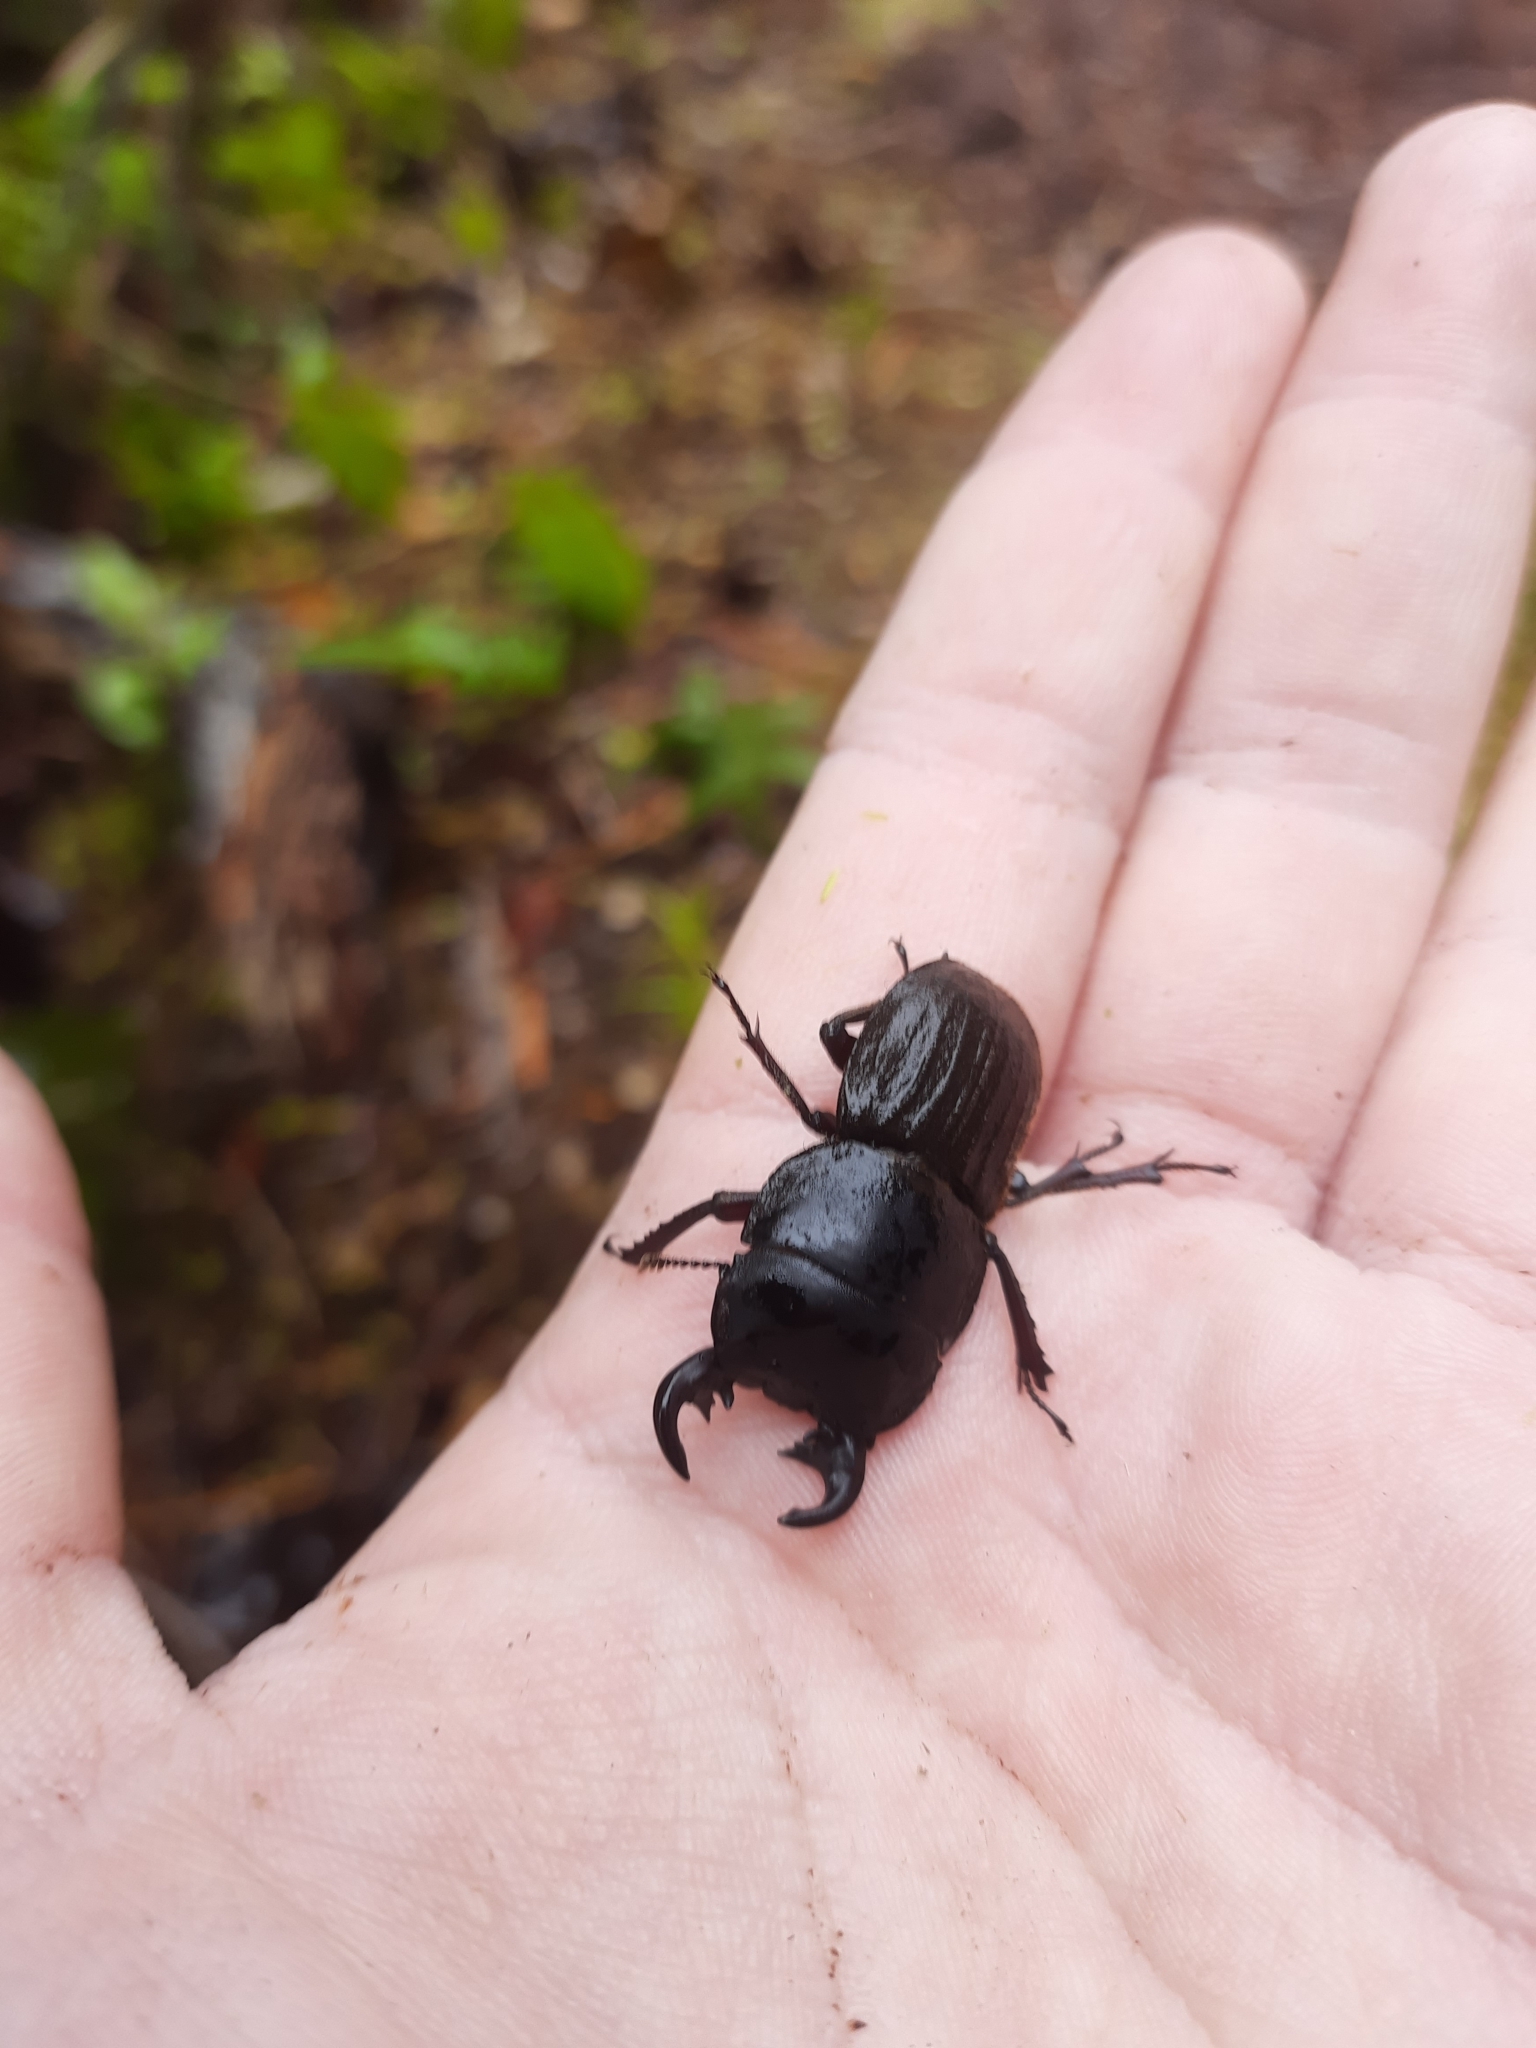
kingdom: Animalia
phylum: Arthropoda
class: Insecta
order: Coleoptera
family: Lucanidae
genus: Geodorcus
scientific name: Geodorcus helmsi
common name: Helm's stag beetle
